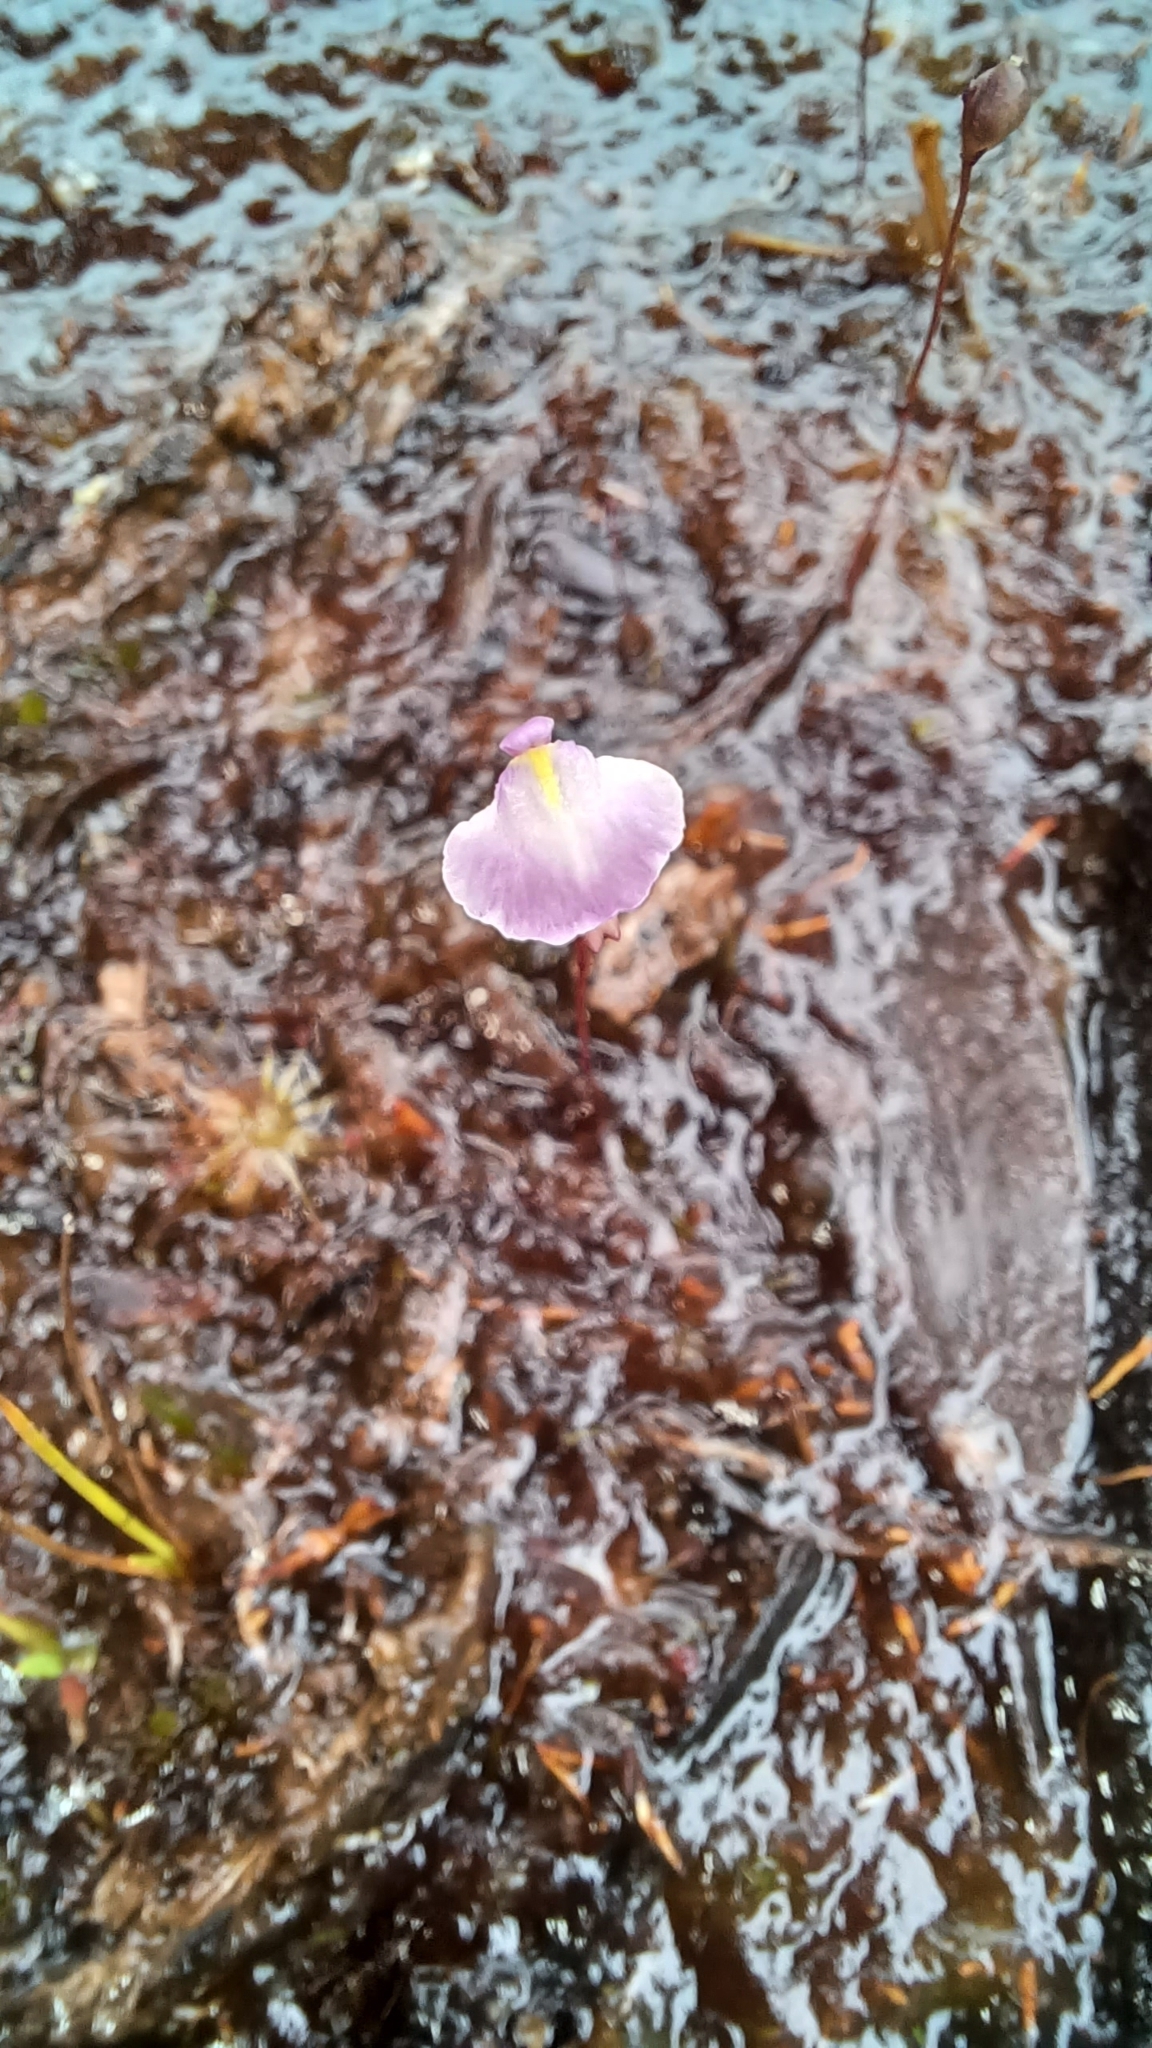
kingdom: Plantae
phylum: Tracheophyta
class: Magnoliopsida
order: Lamiales
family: Lentibulariaceae
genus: Utricularia
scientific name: Utricularia lateriflora
